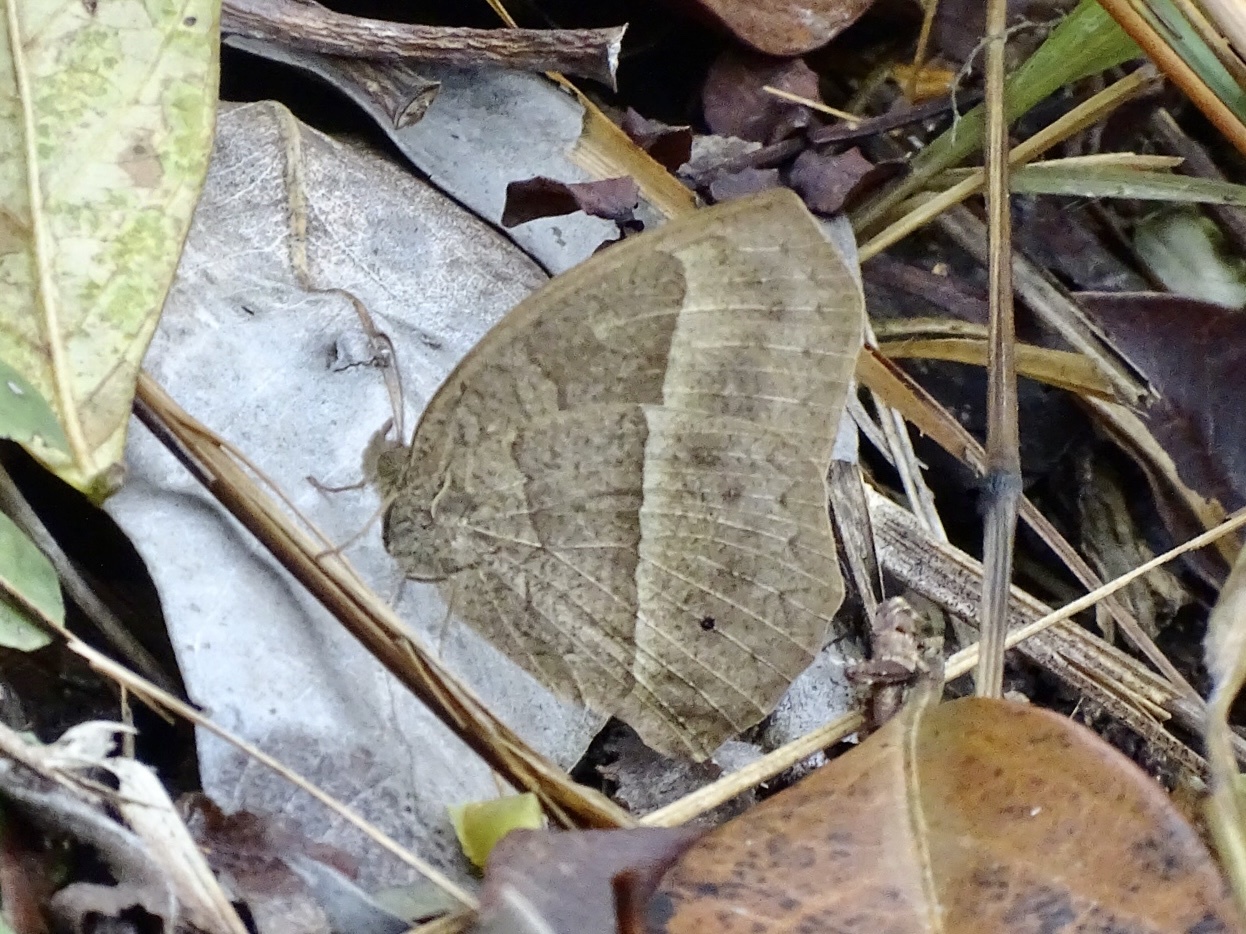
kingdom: Animalia
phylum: Arthropoda
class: Insecta
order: Lepidoptera
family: Nymphalidae
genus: Mycalesis
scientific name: Mycalesis horsfieldii
